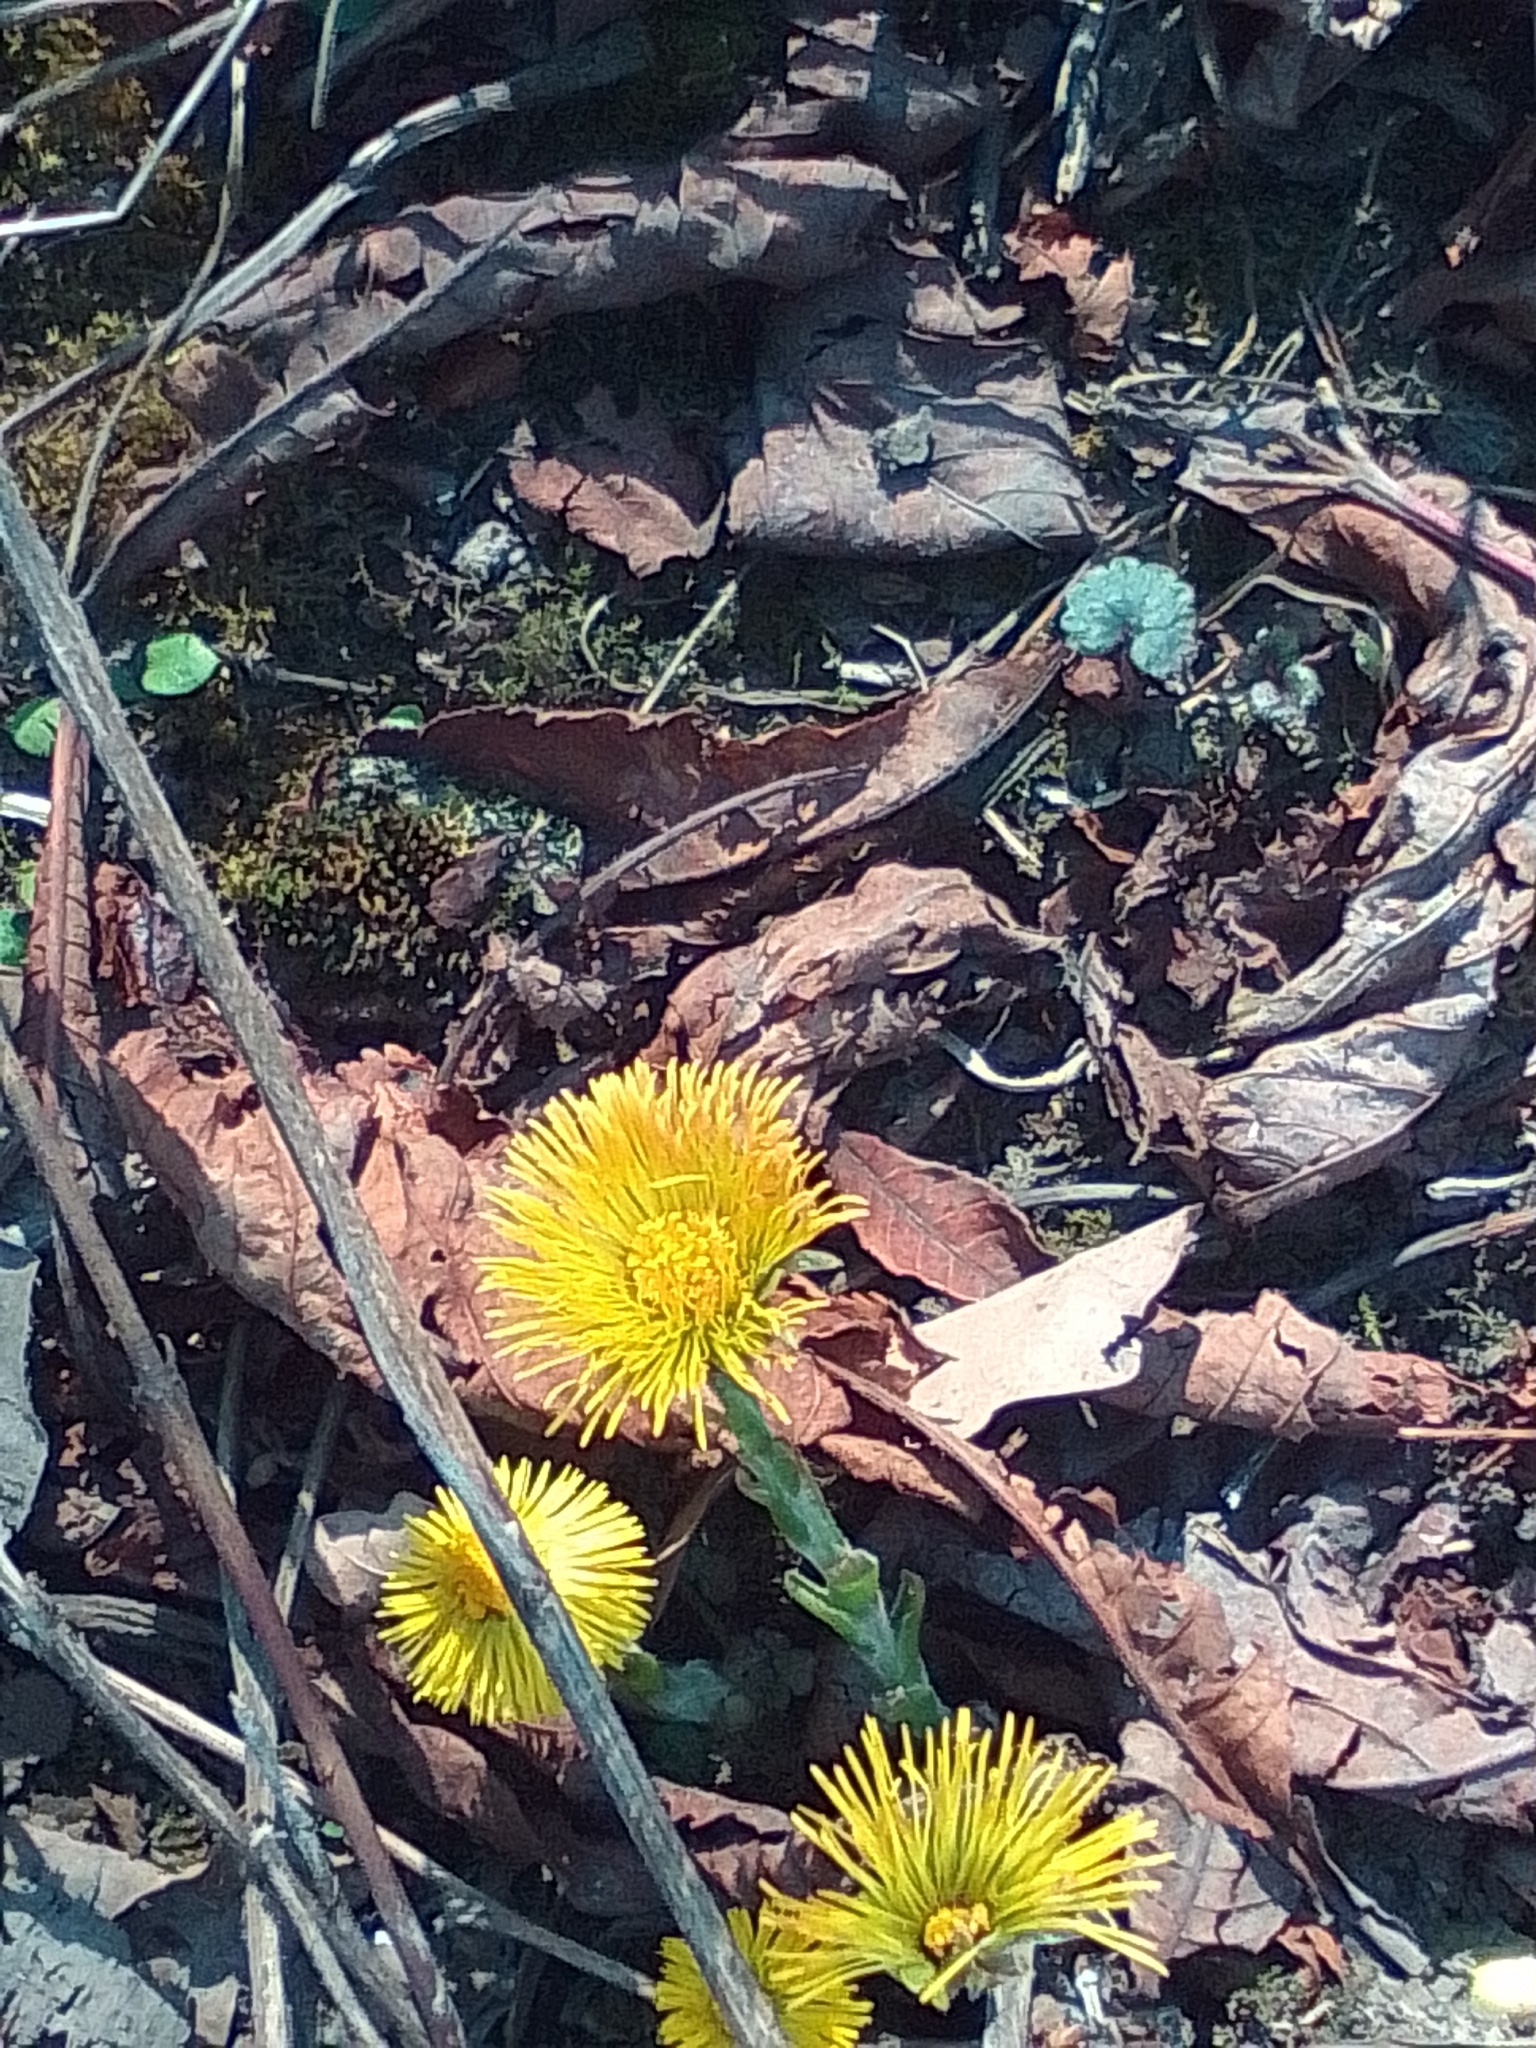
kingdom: Plantae
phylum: Tracheophyta
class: Magnoliopsida
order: Asterales
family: Asteraceae
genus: Tussilago
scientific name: Tussilago farfara
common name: Coltsfoot
